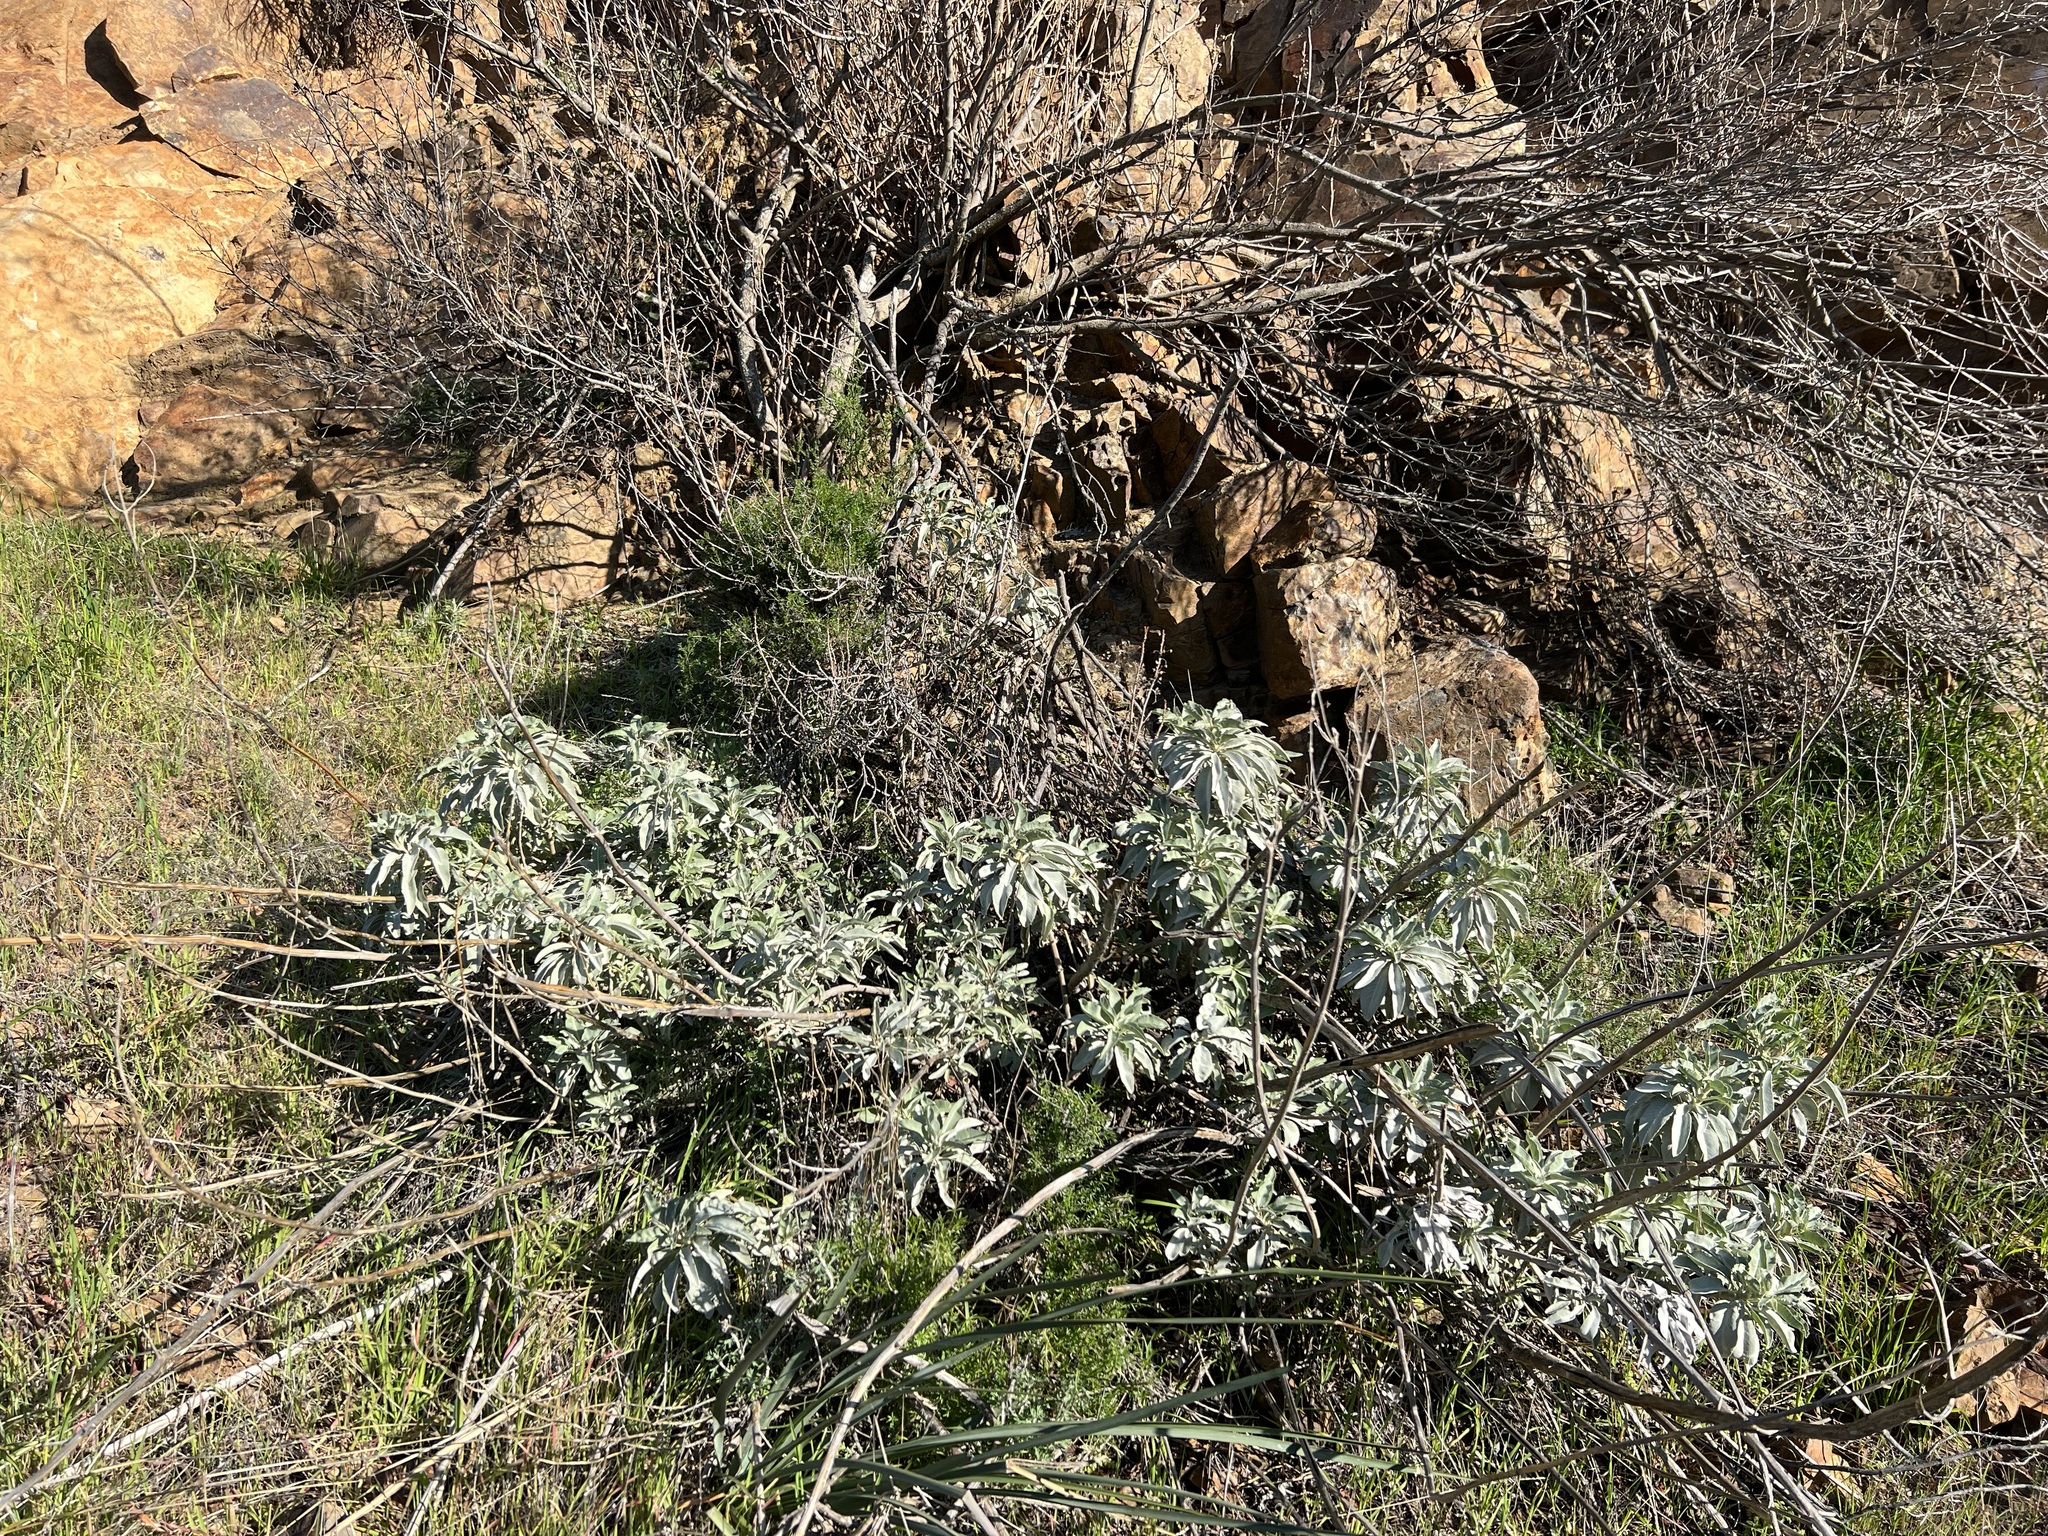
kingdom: Plantae
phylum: Tracheophyta
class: Magnoliopsida
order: Lamiales
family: Lamiaceae
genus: Salvia
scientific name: Salvia apiana
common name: White sage
